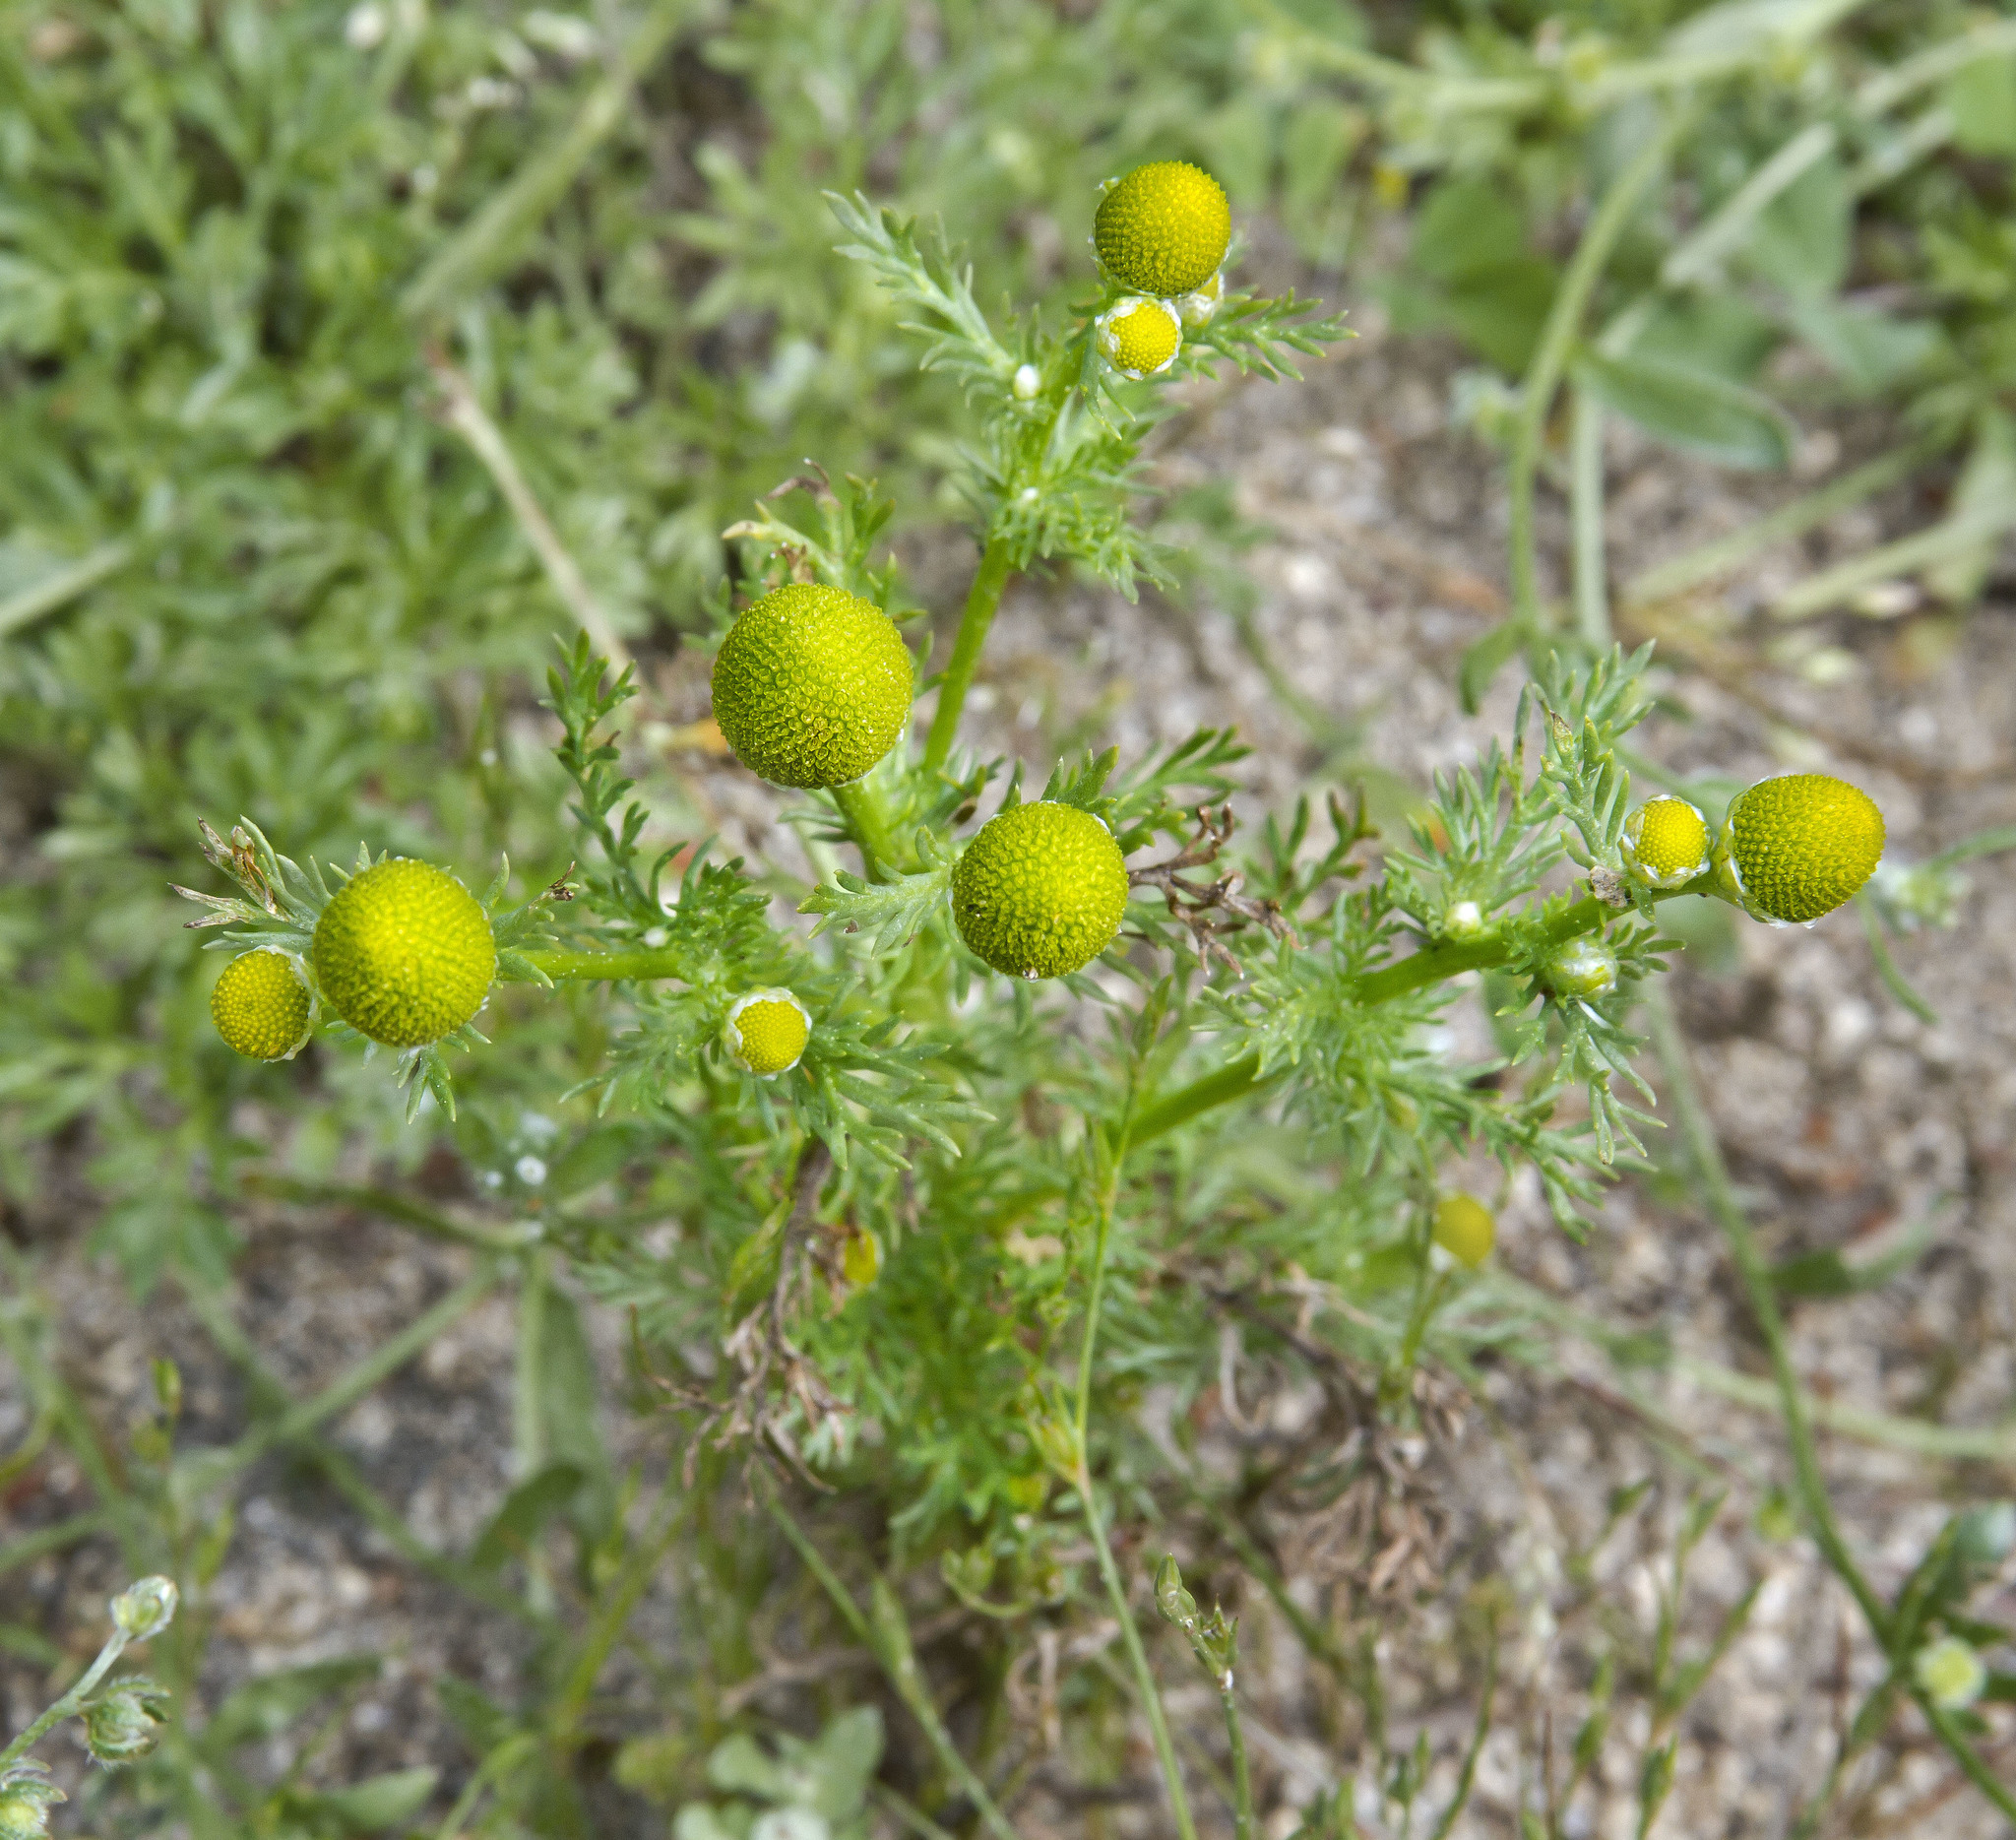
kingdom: Plantae
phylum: Tracheophyta
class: Magnoliopsida
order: Asterales
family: Asteraceae
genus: Matricaria
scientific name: Matricaria discoidea
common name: Disc mayweed
